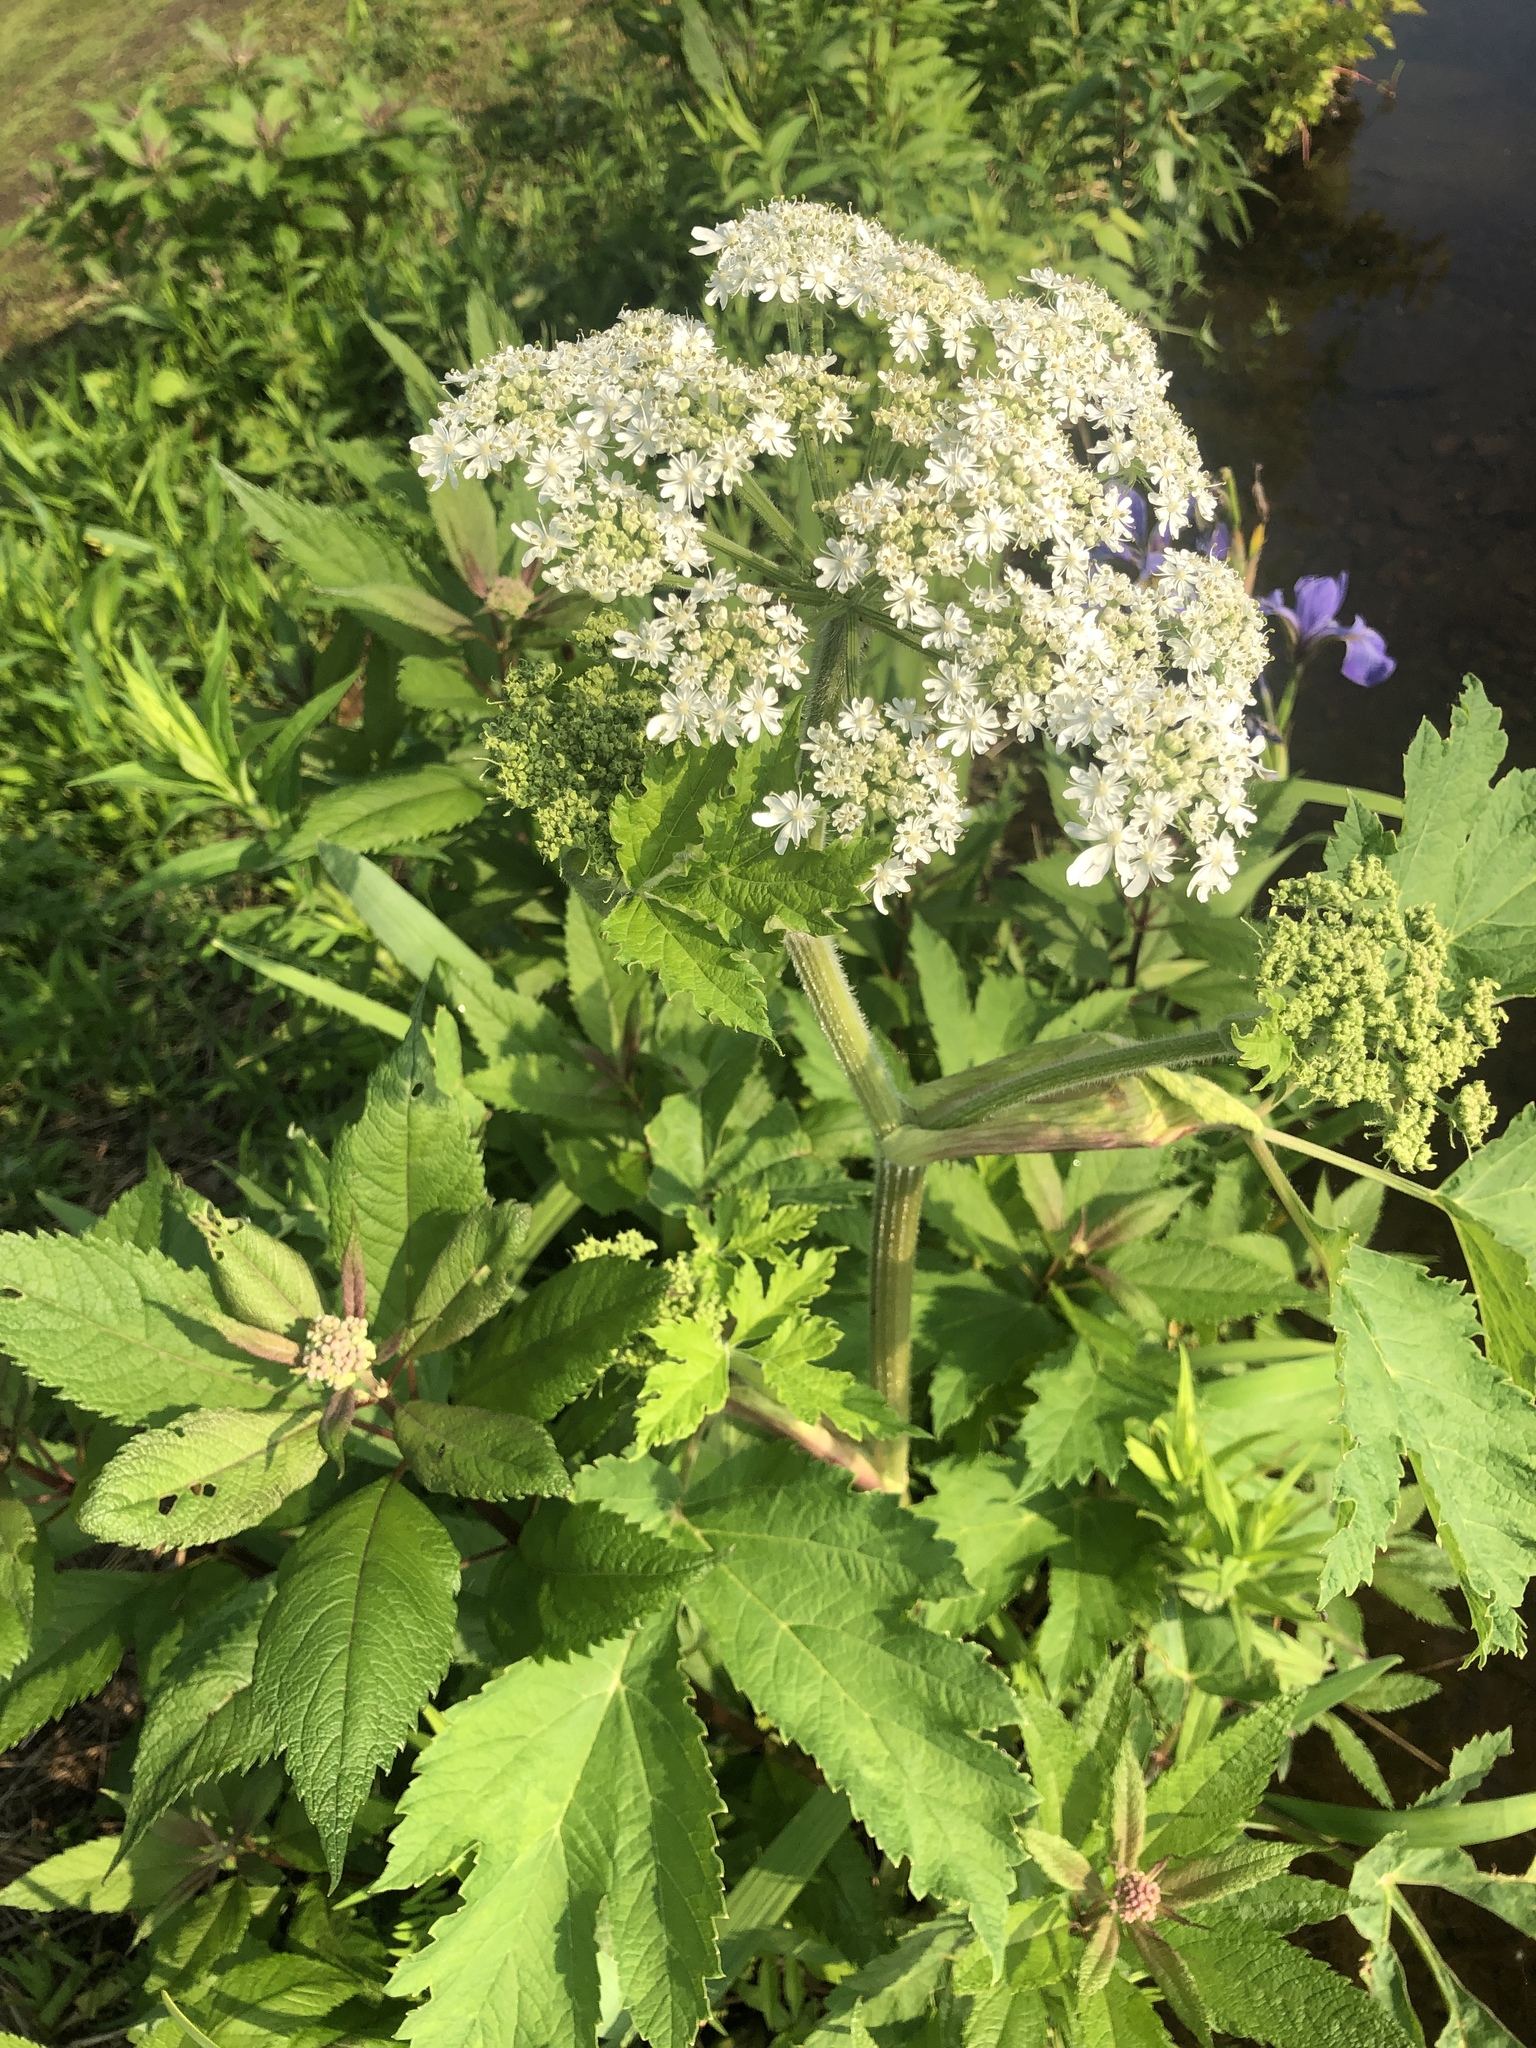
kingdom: Plantae
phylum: Tracheophyta
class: Magnoliopsida
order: Apiales
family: Apiaceae
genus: Heracleum
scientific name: Heracleum maximum
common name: American cow parsnip
